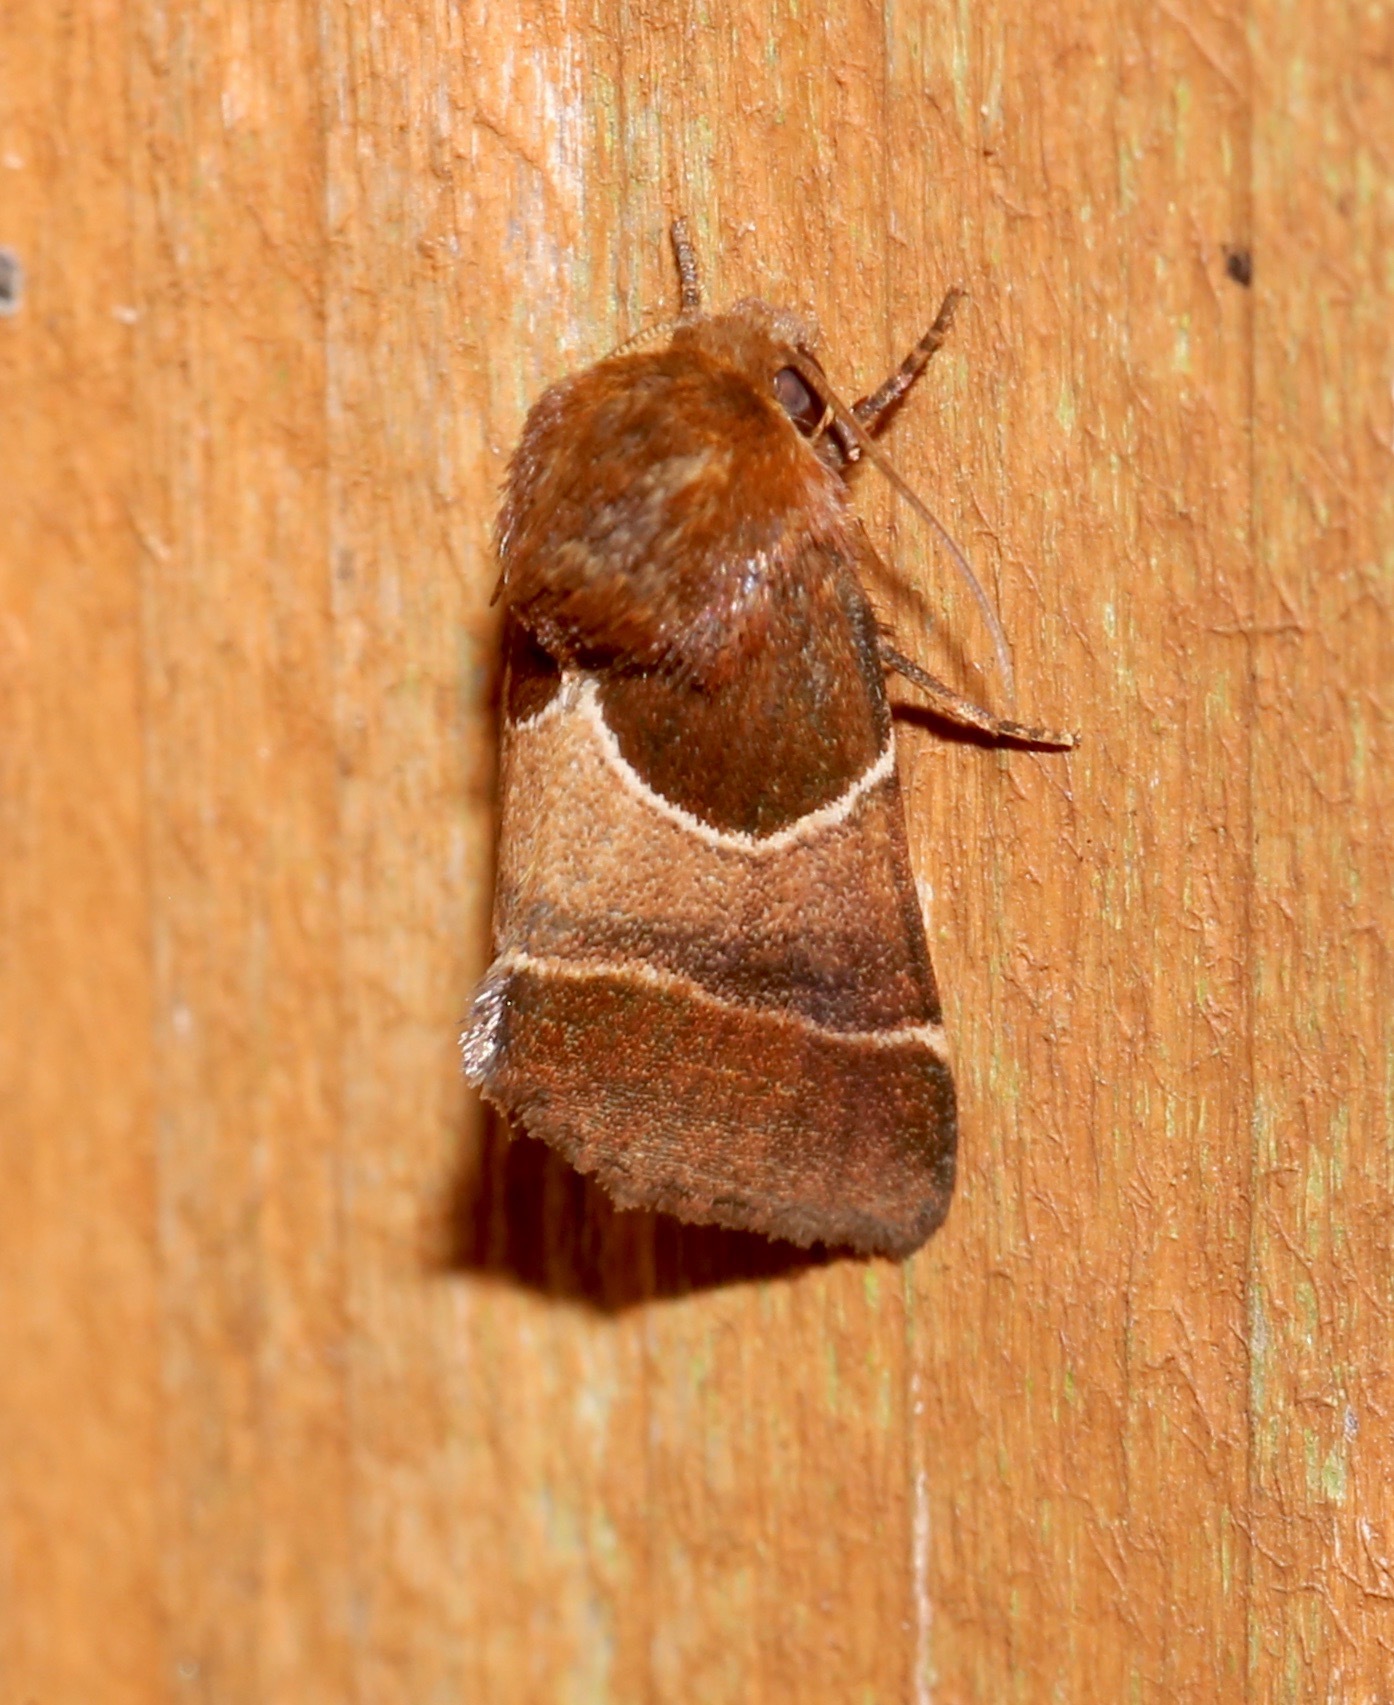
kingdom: Animalia
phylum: Arthropoda
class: Insecta
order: Lepidoptera
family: Noctuidae
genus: Schinia
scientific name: Schinia arcigera
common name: Arcigera flower moth
